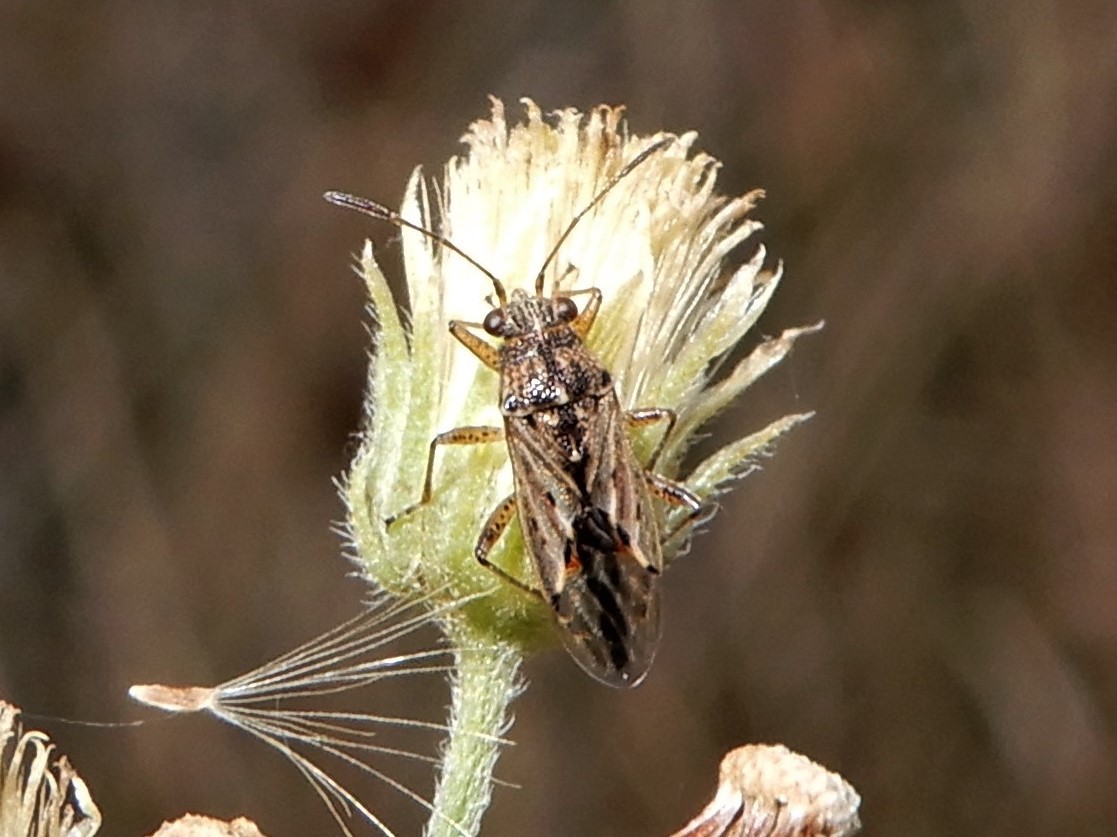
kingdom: Animalia
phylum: Arthropoda
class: Insecta
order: Hemiptera
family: Lygaeidae
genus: Nysius
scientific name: Nysius caledoniae
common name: Lygaeid bug
